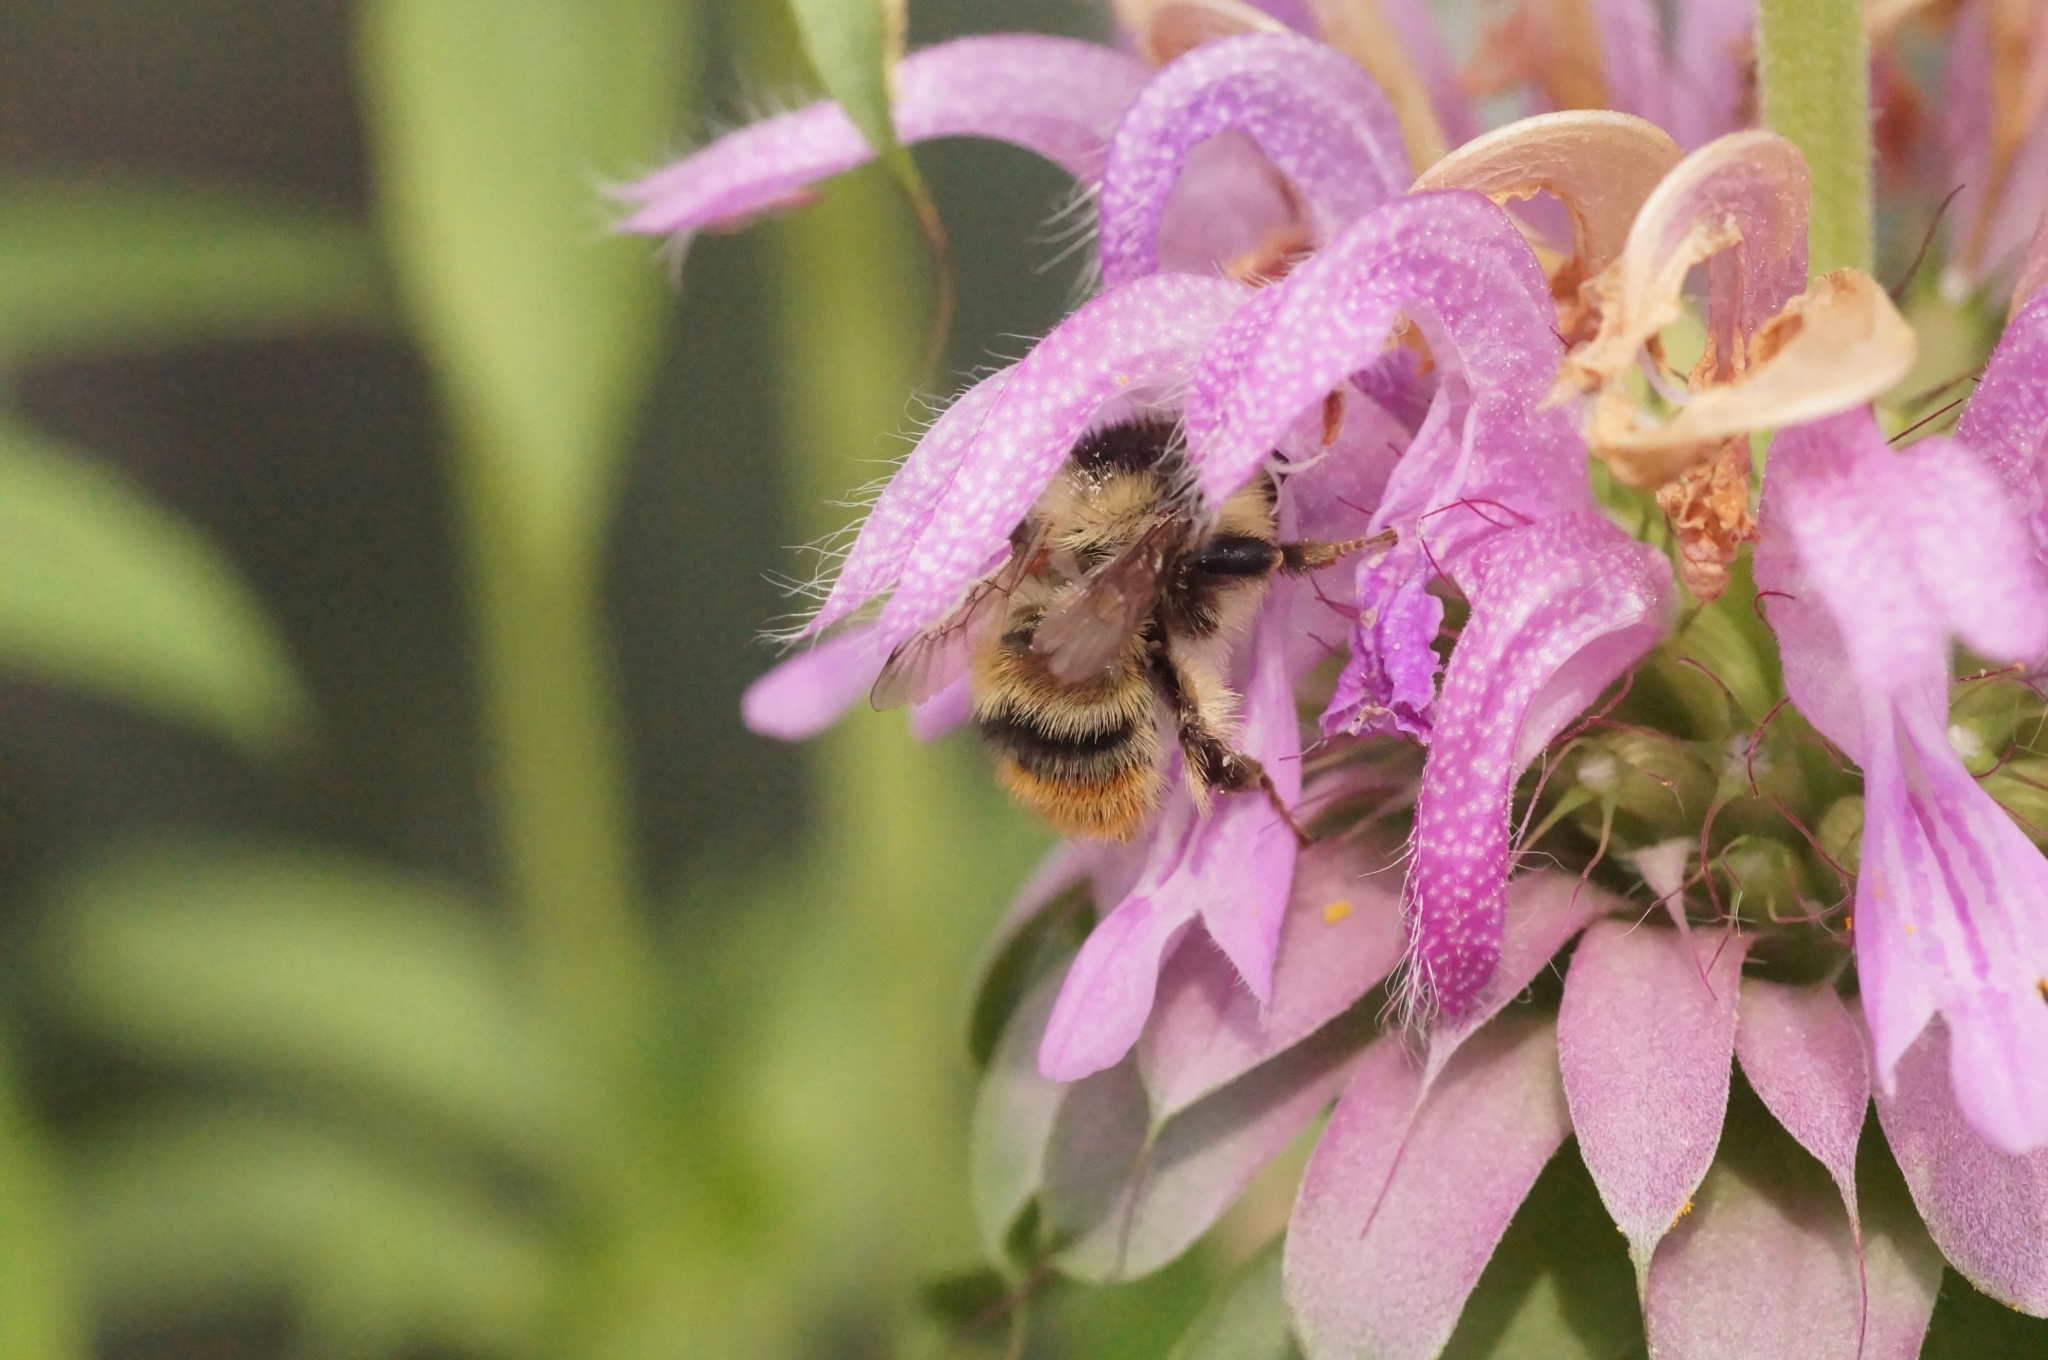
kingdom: Animalia
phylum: Arthropoda
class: Insecta
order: Hymenoptera
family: Apidae
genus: Bombus
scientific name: Bombus sylvarum
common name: Shrill carder bee
